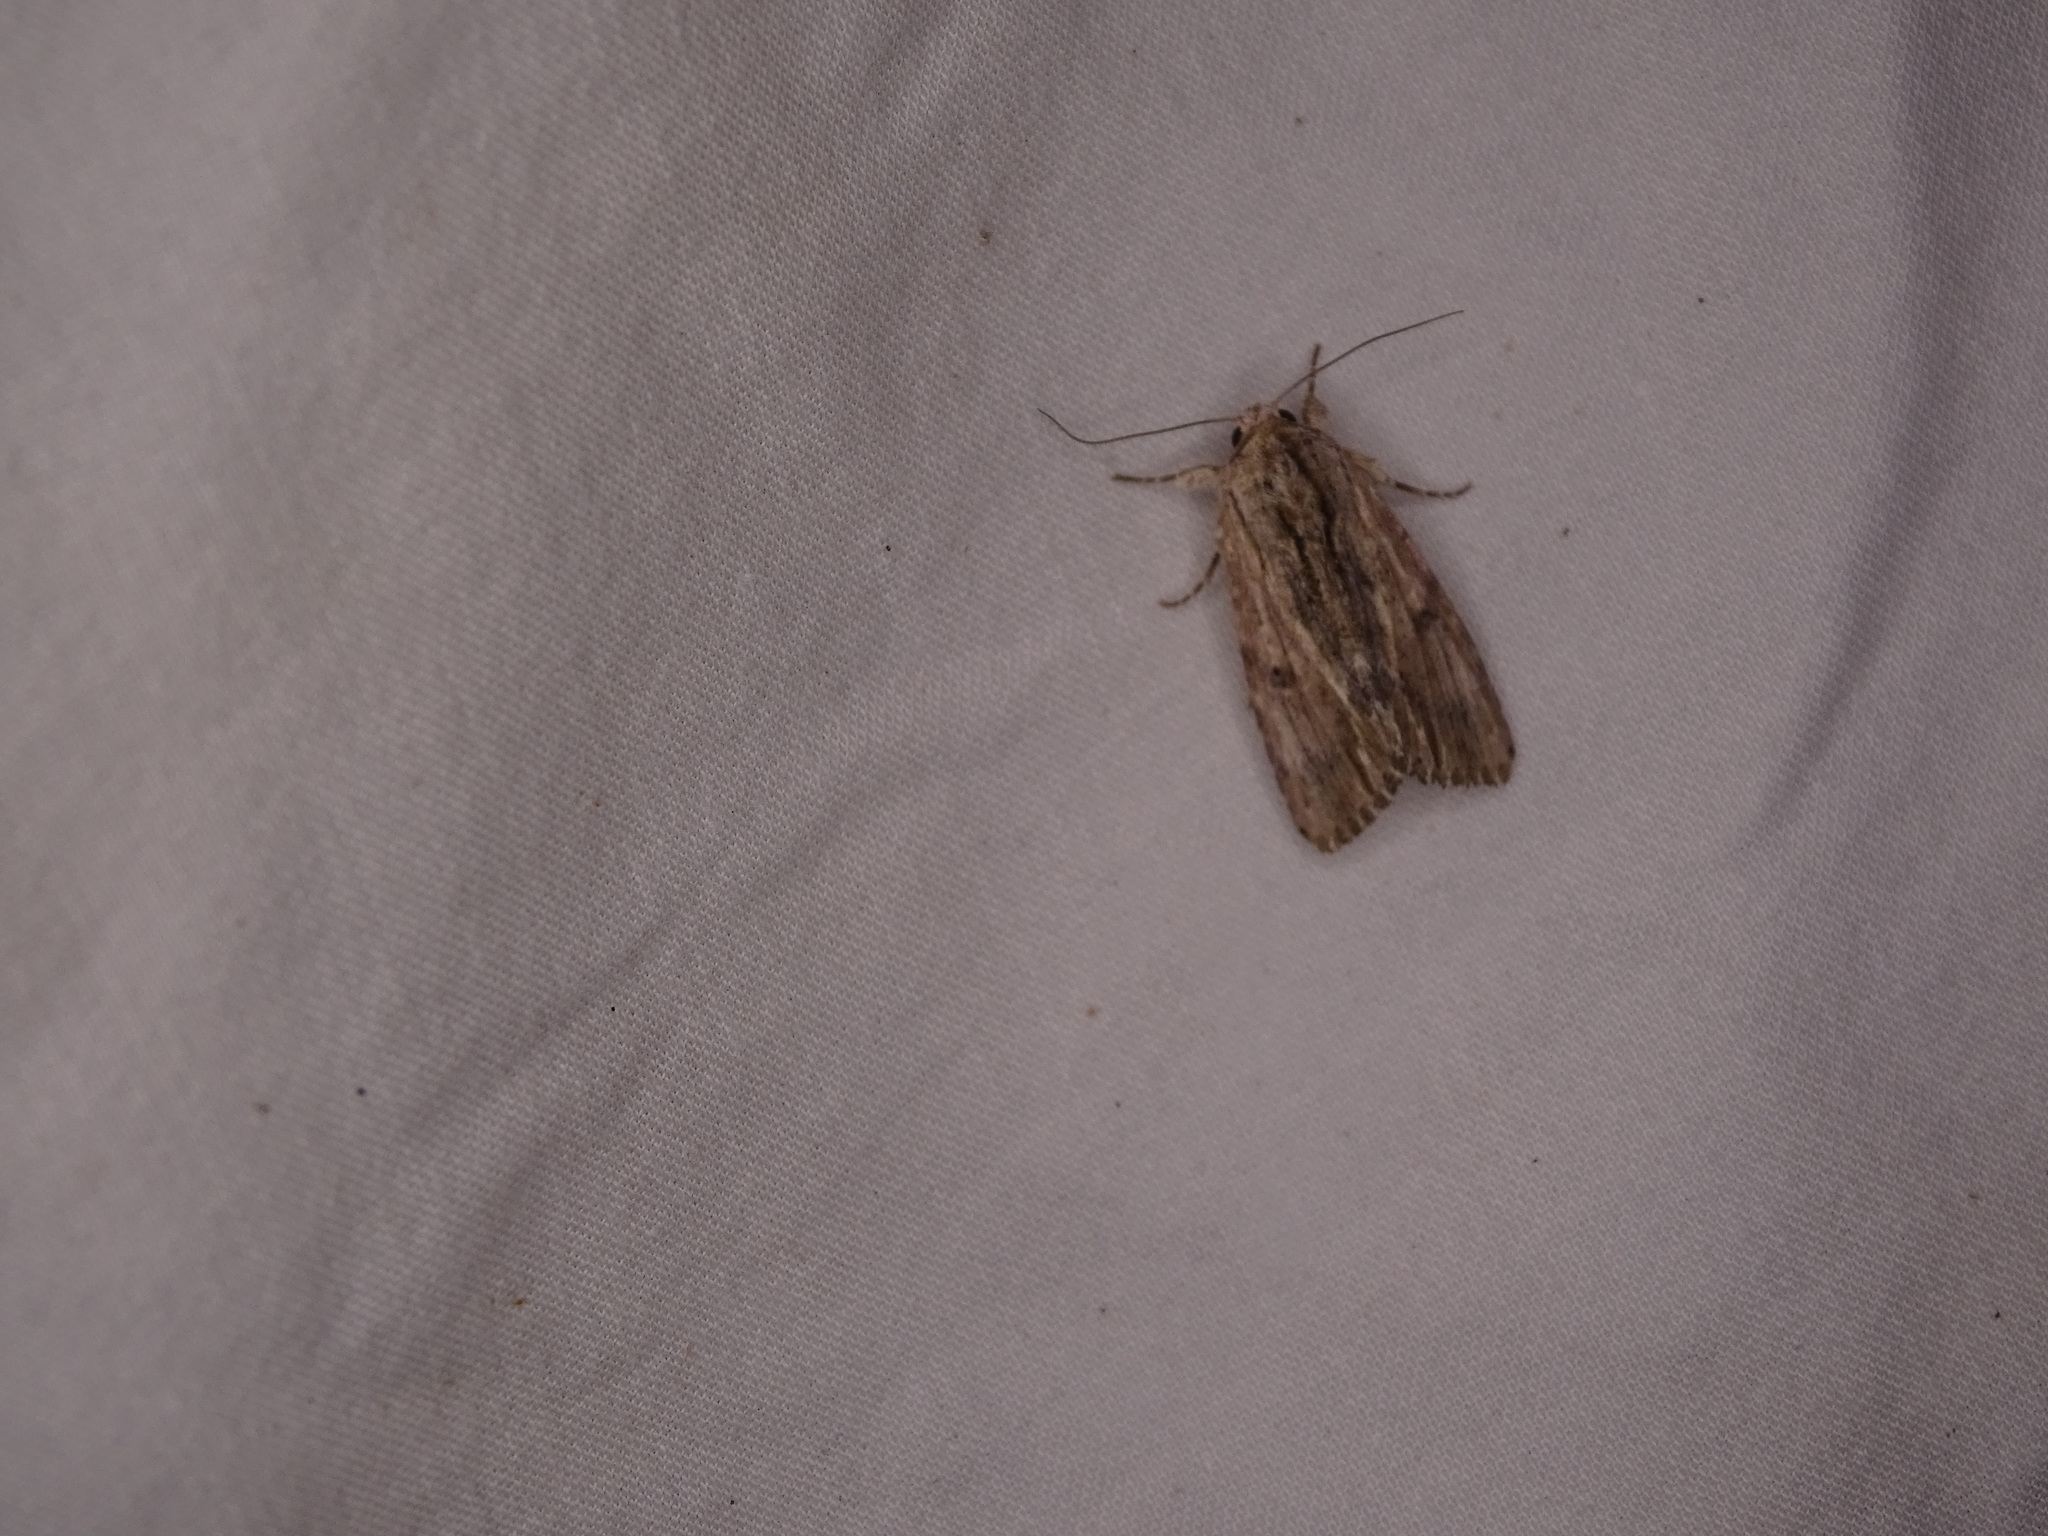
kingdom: Animalia
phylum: Arthropoda
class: Insecta
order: Lepidoptera
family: Noctuidae
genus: Spodoptera
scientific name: Spodoptera eridania
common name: Southern army worm
